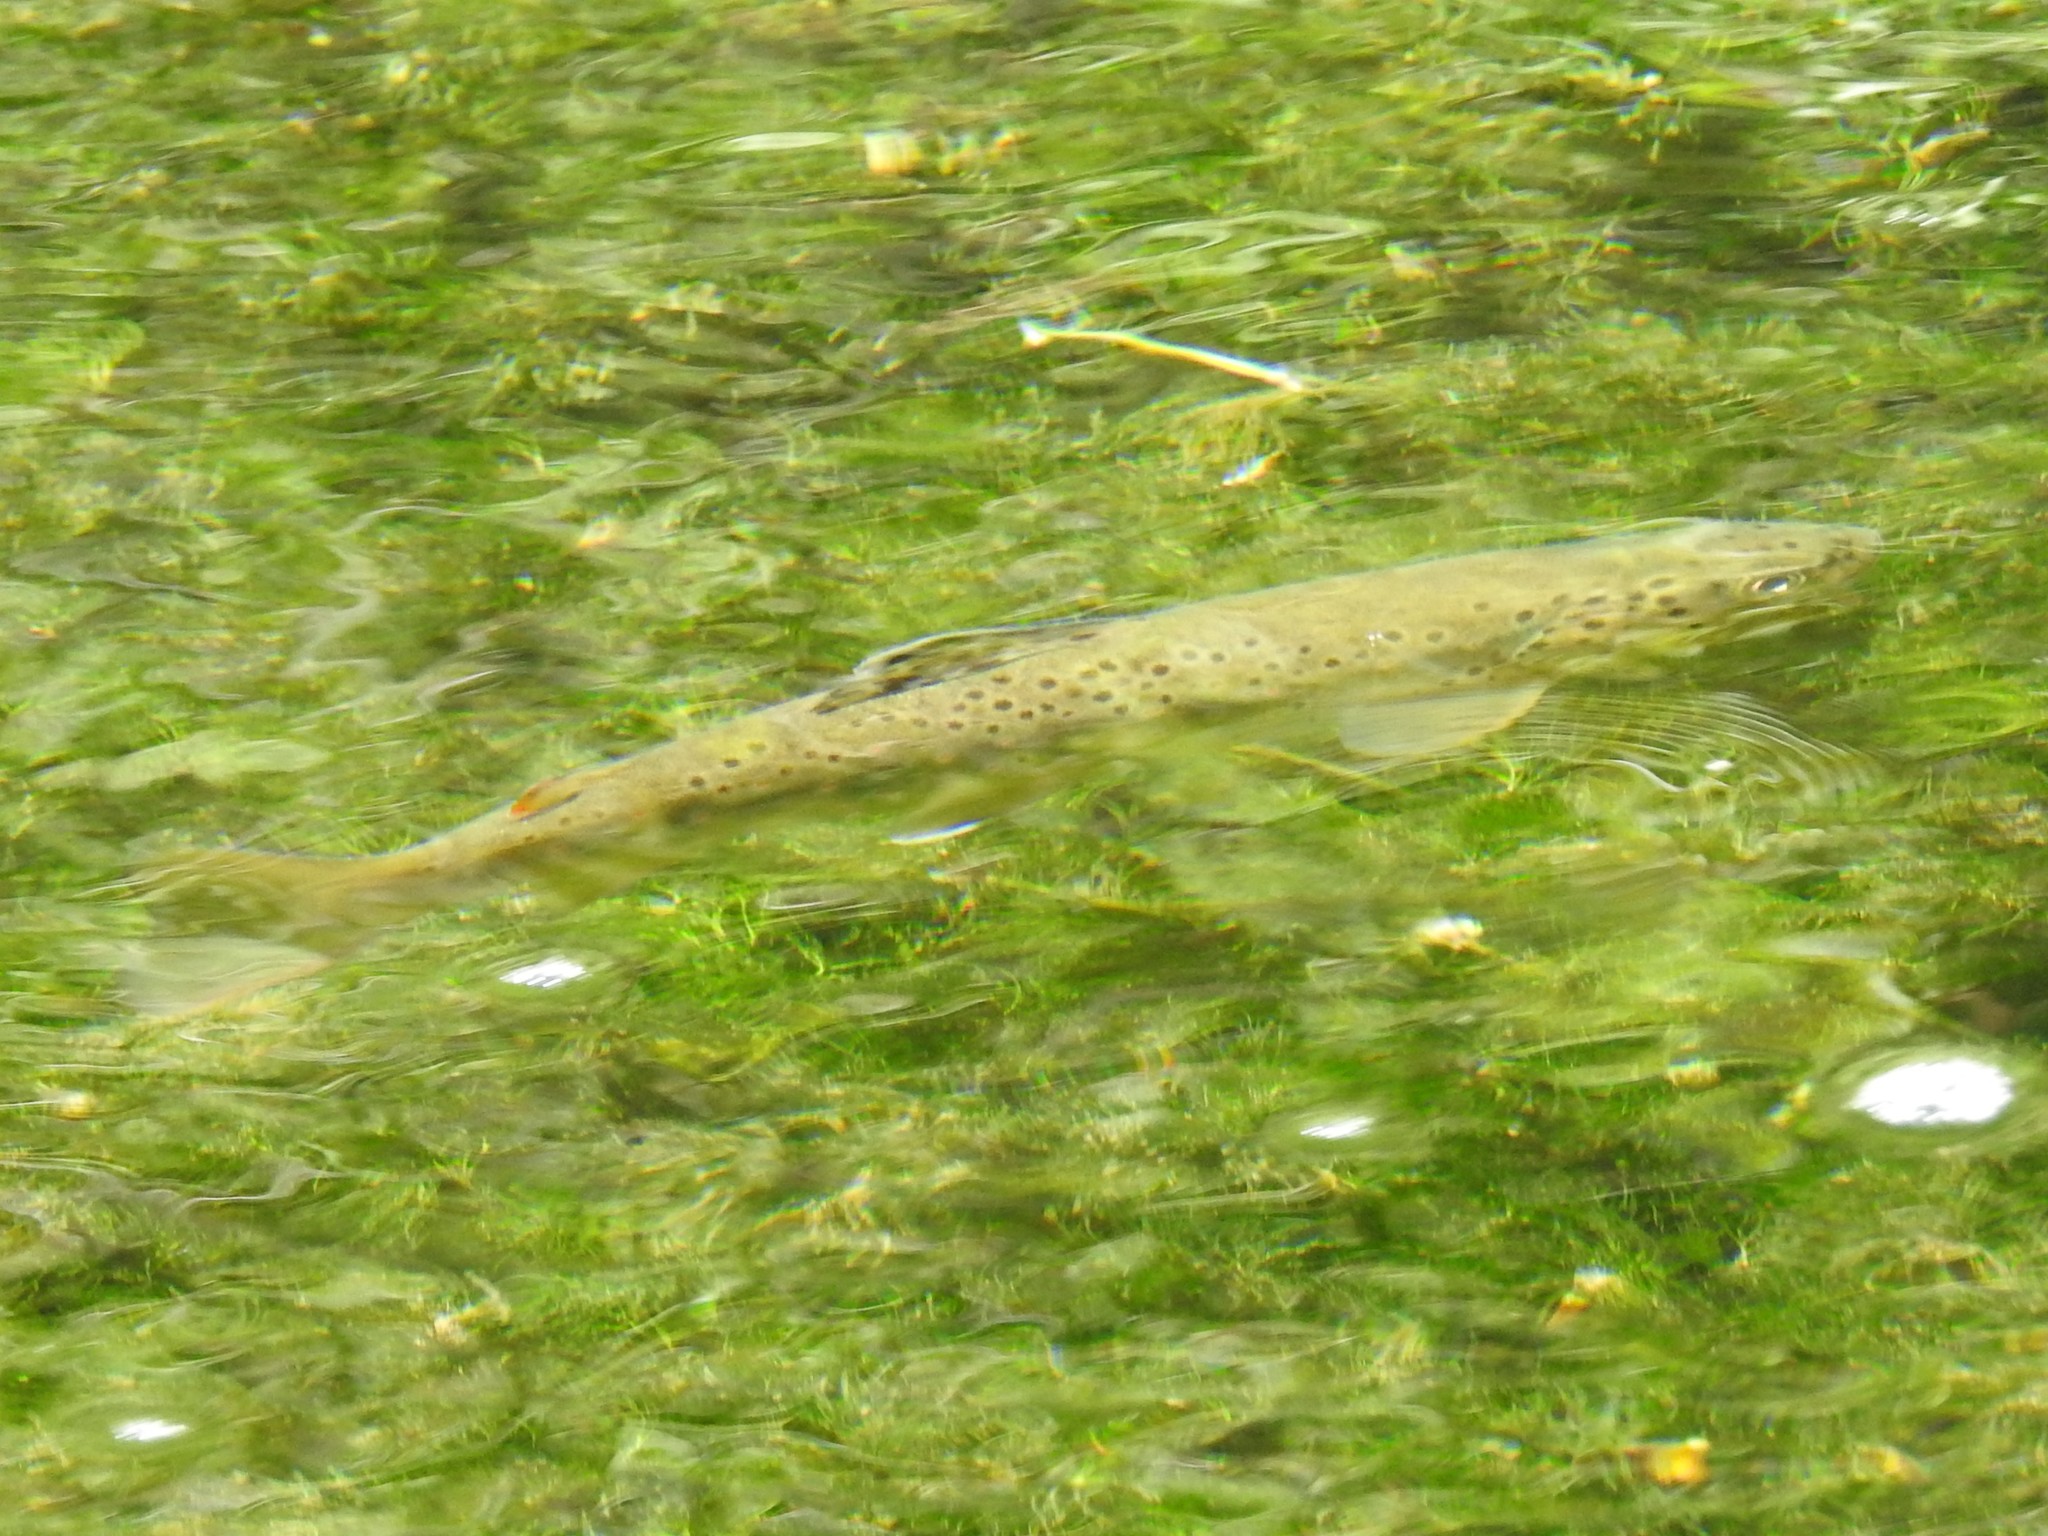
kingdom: Animalia
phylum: Chordata
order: Salmoniformes
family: Salmonidae
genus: Salmo
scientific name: Salmo trutta
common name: Brown trout
